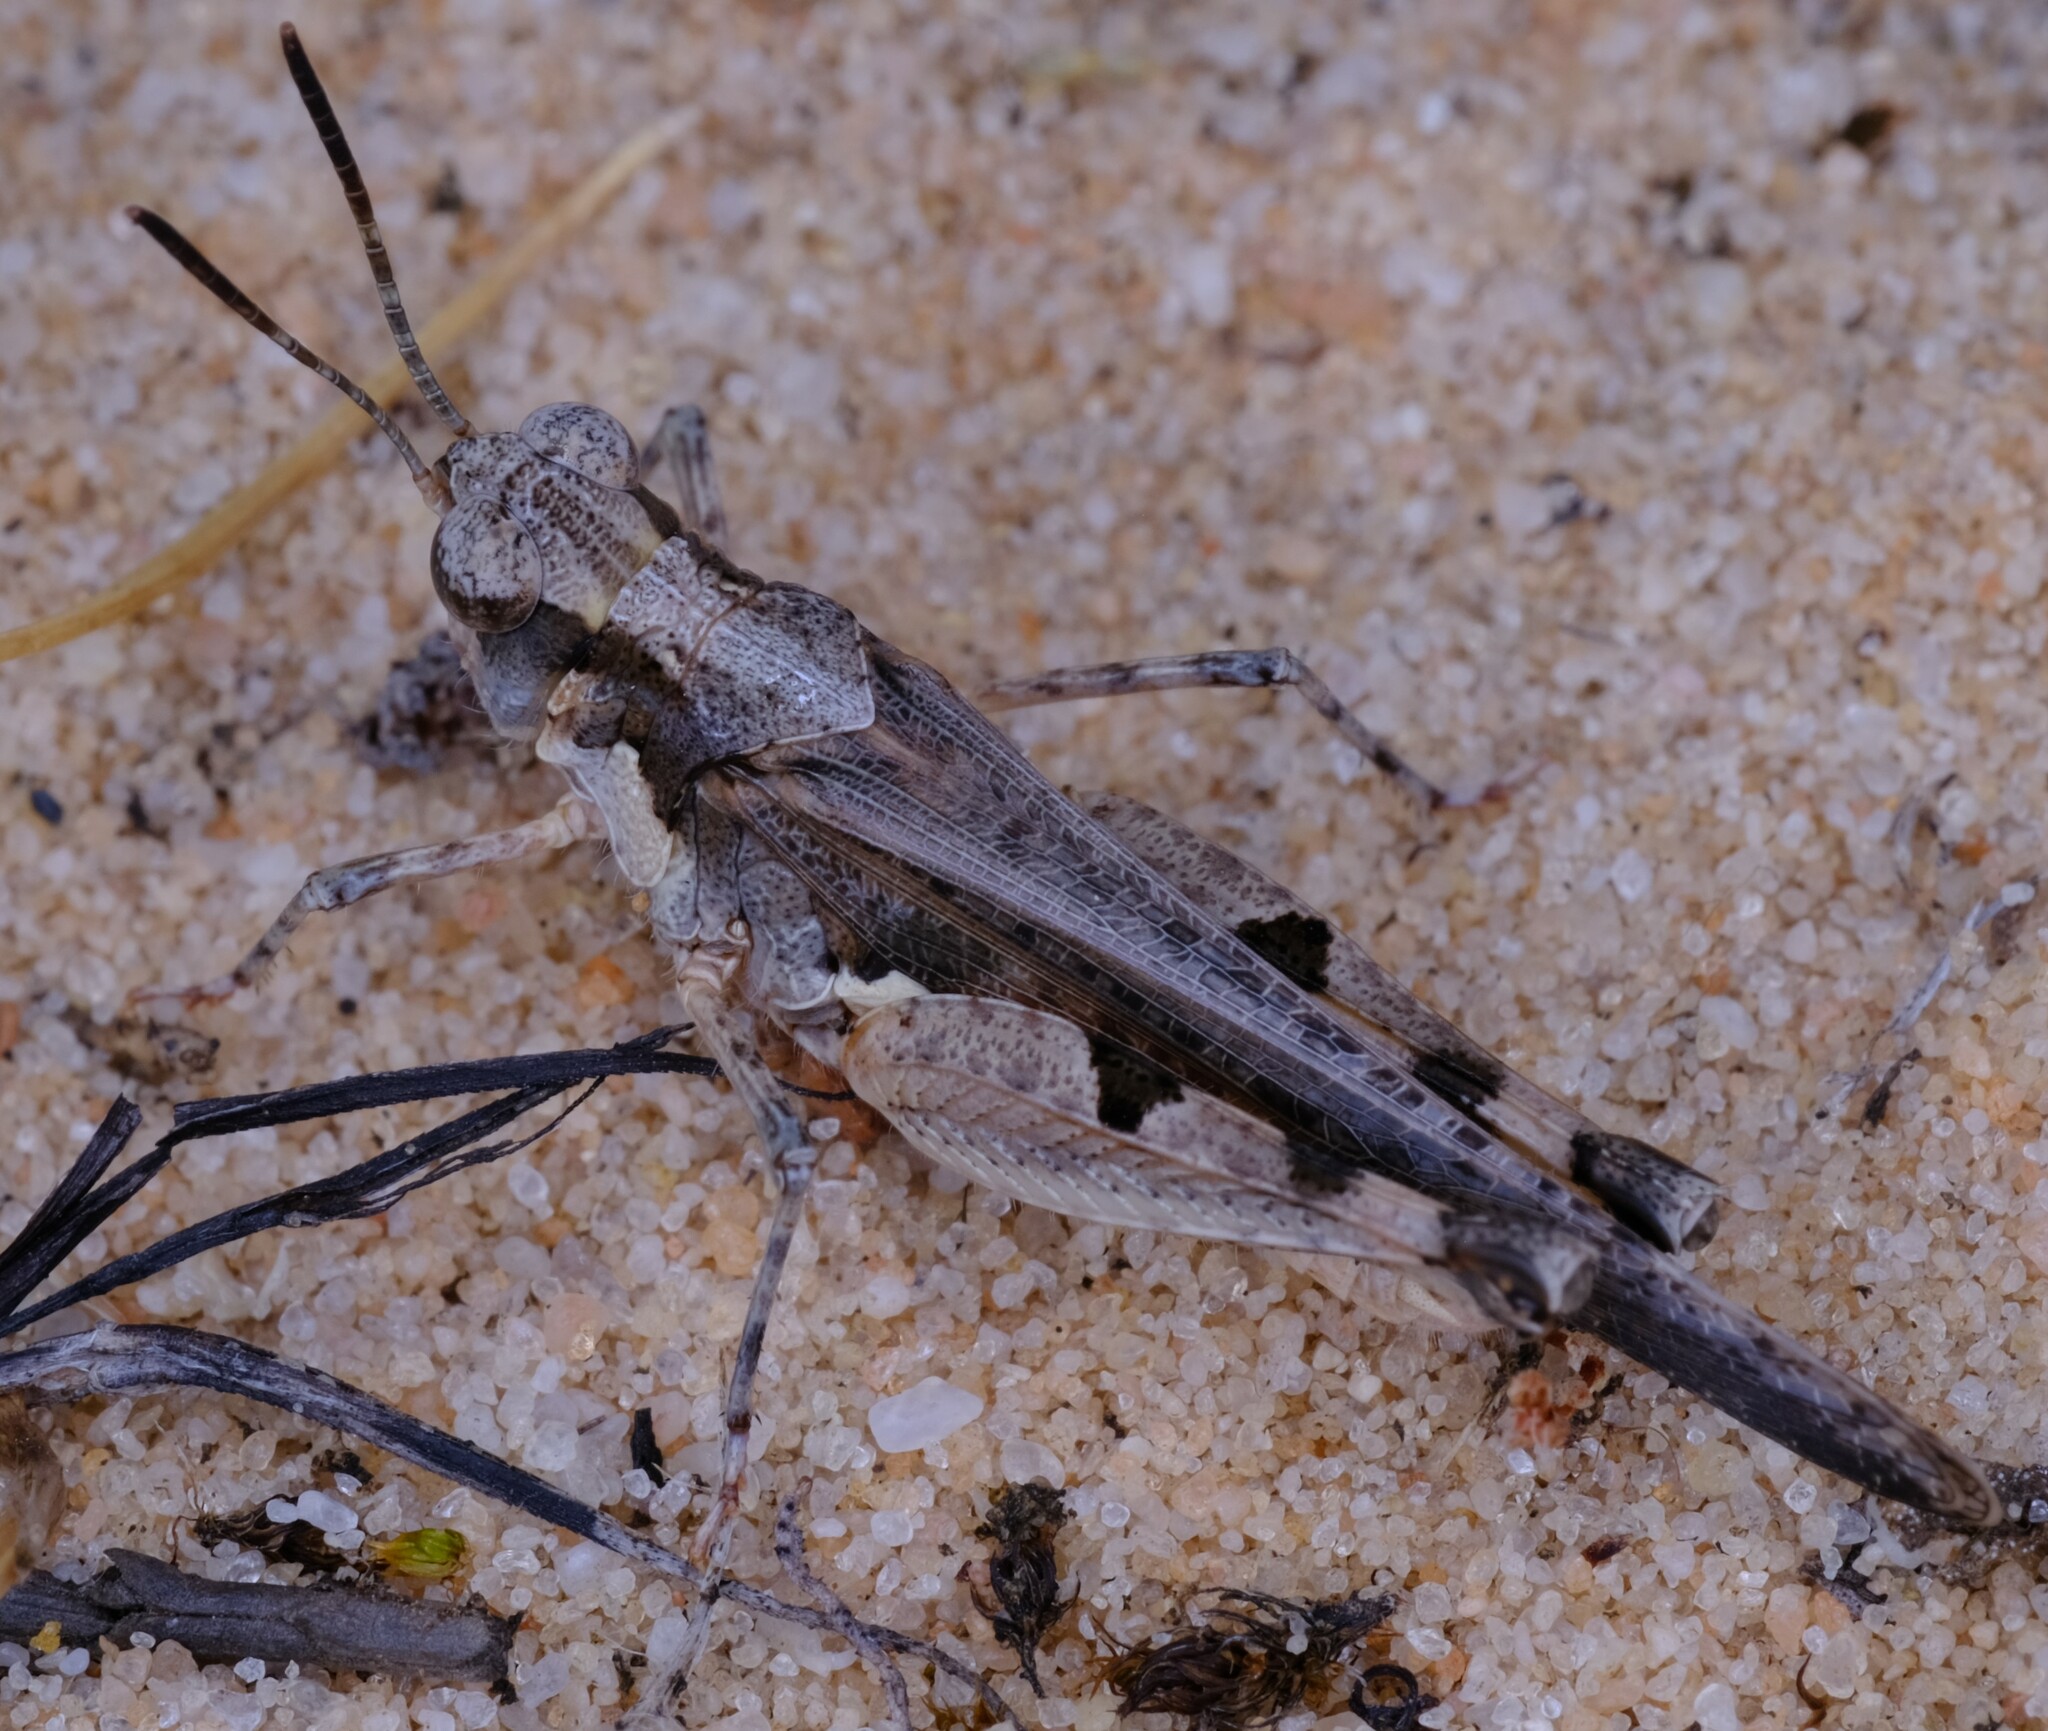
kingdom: Animalia
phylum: Arthropoda
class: Insecta
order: Orthoptera
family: Acrididae
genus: Pycnostictus
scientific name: Pycnostictus seriatus
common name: Common bandwing
